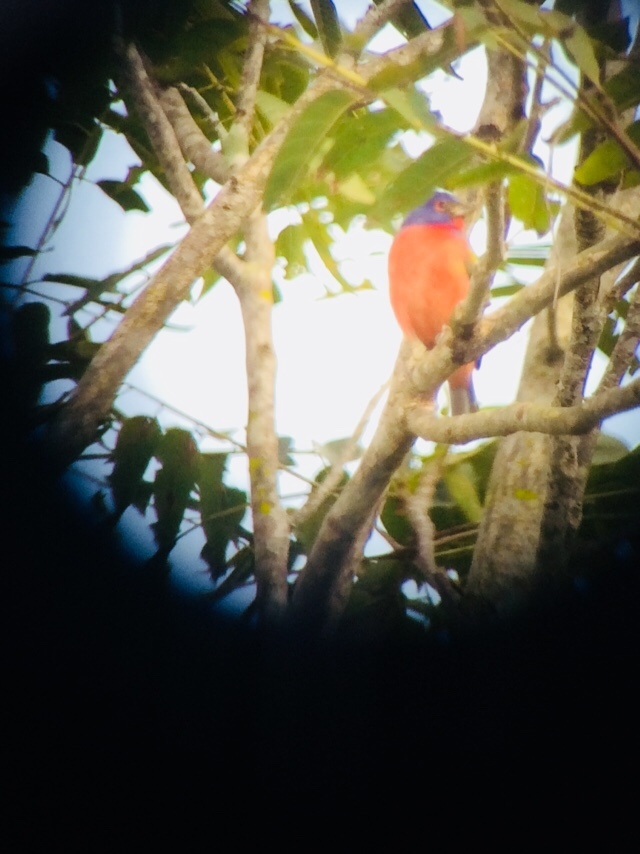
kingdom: Animalia
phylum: Chordata
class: Aves
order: Passeriformes
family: Cardinalidae
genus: Passerina
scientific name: Passerina ciris
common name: Painted bunting
